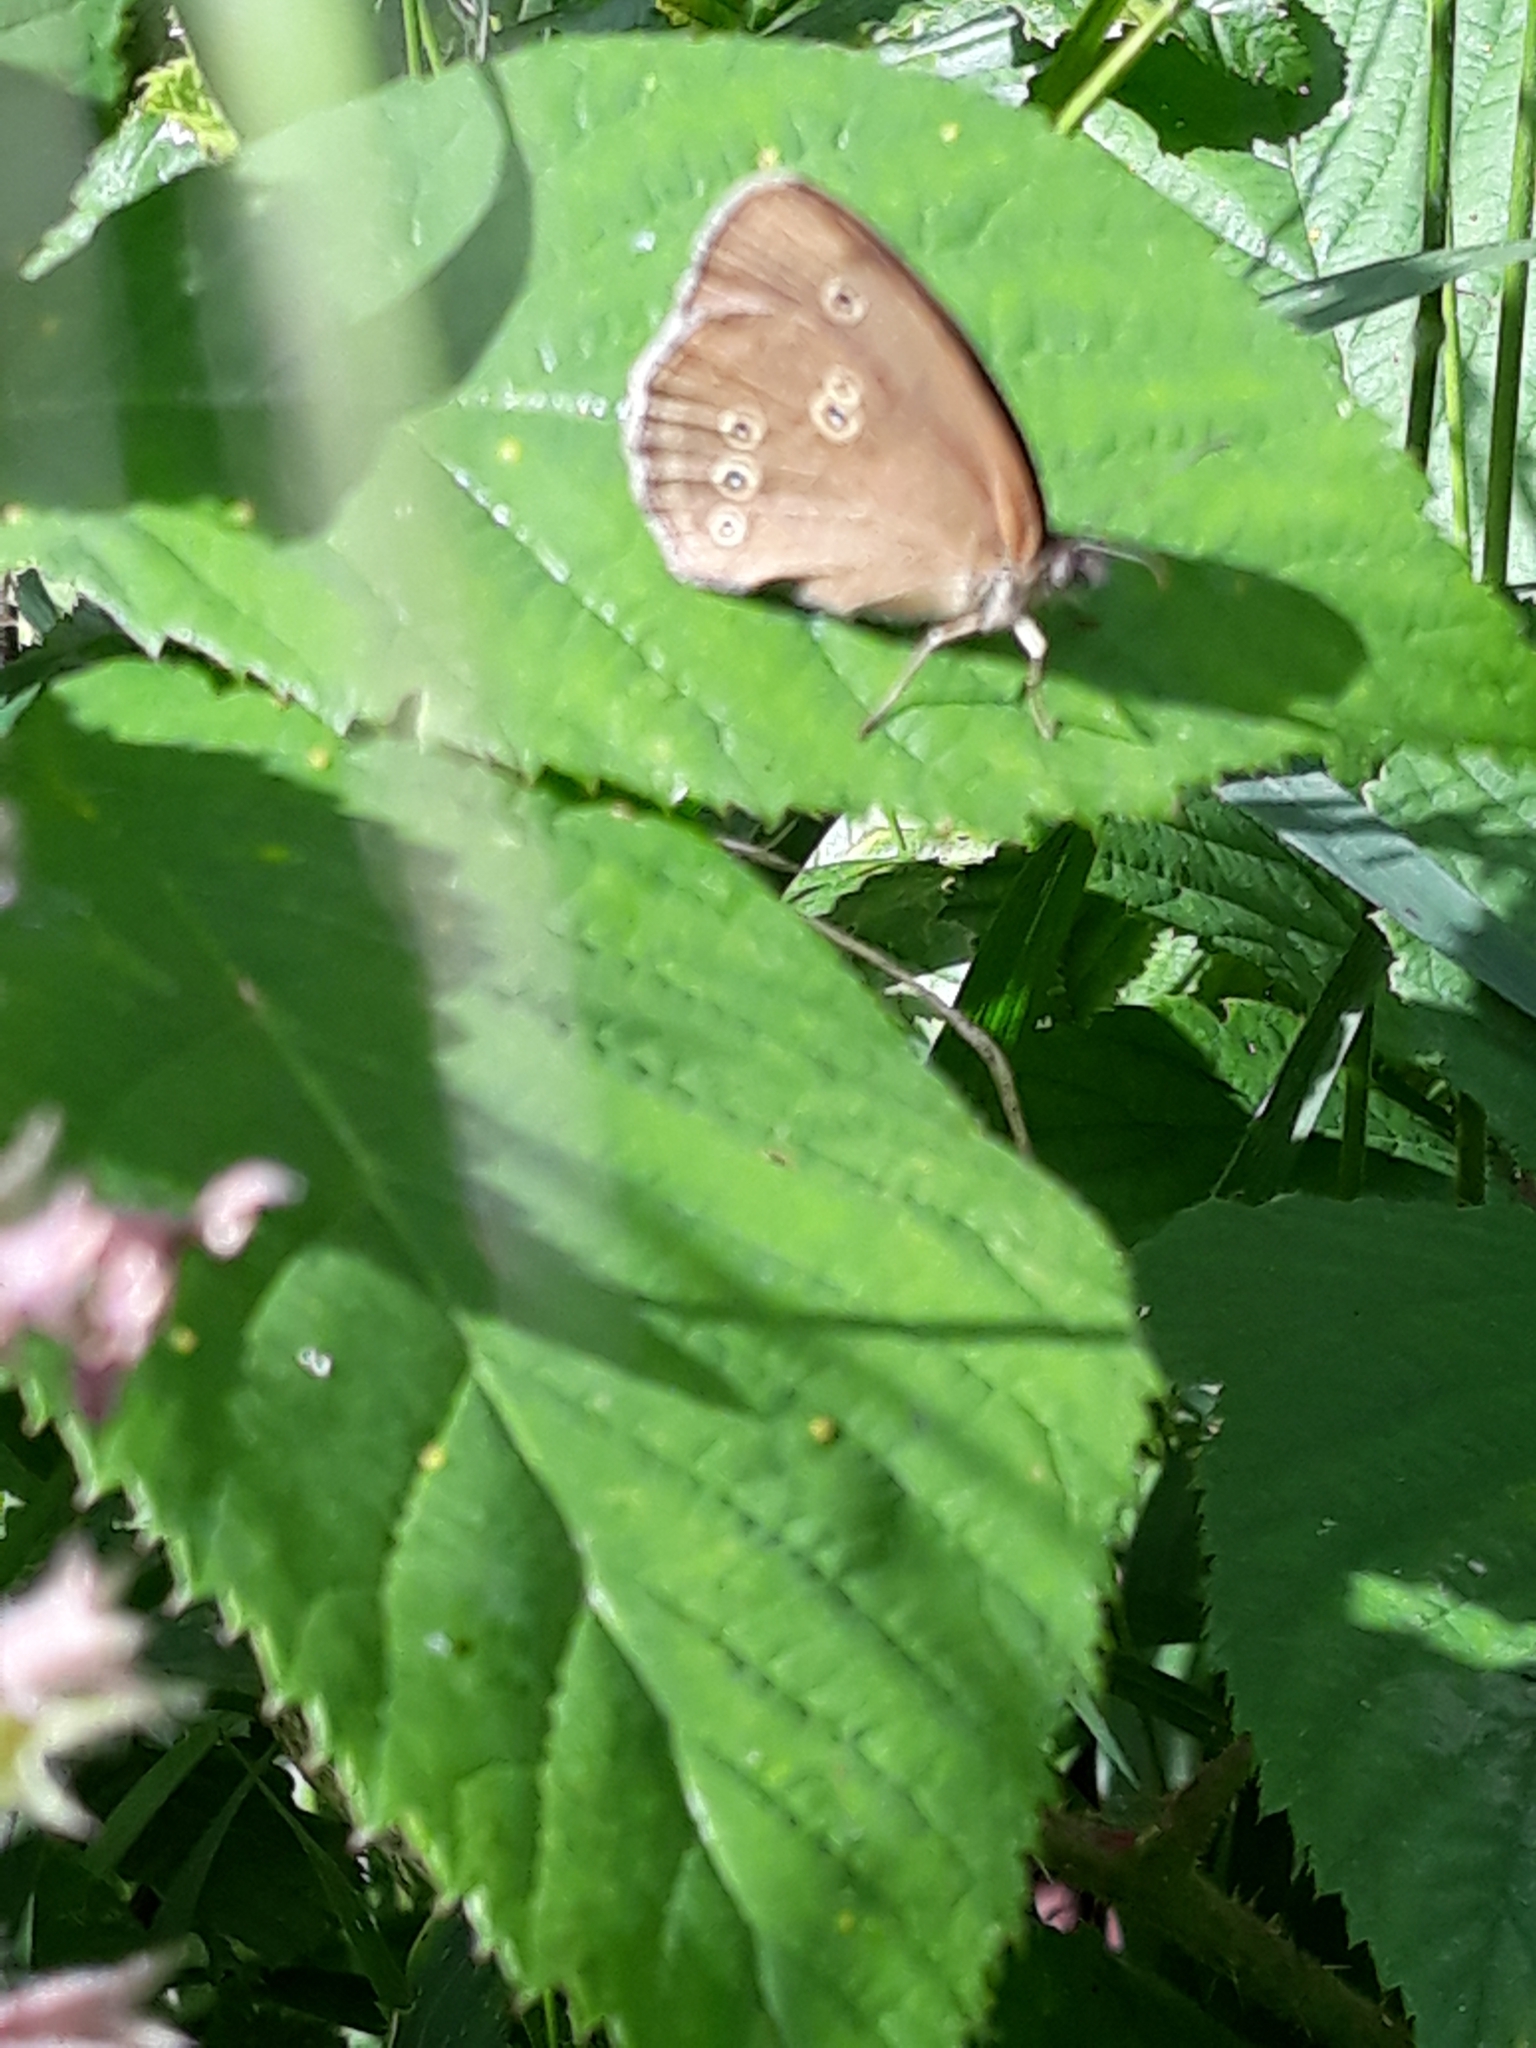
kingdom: Animalia
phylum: Arthropoda
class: Insecta
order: Lepidoptera
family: Nymphalidae
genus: Aphantopus
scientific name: Aphantopus hyperantus
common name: Ringlet
